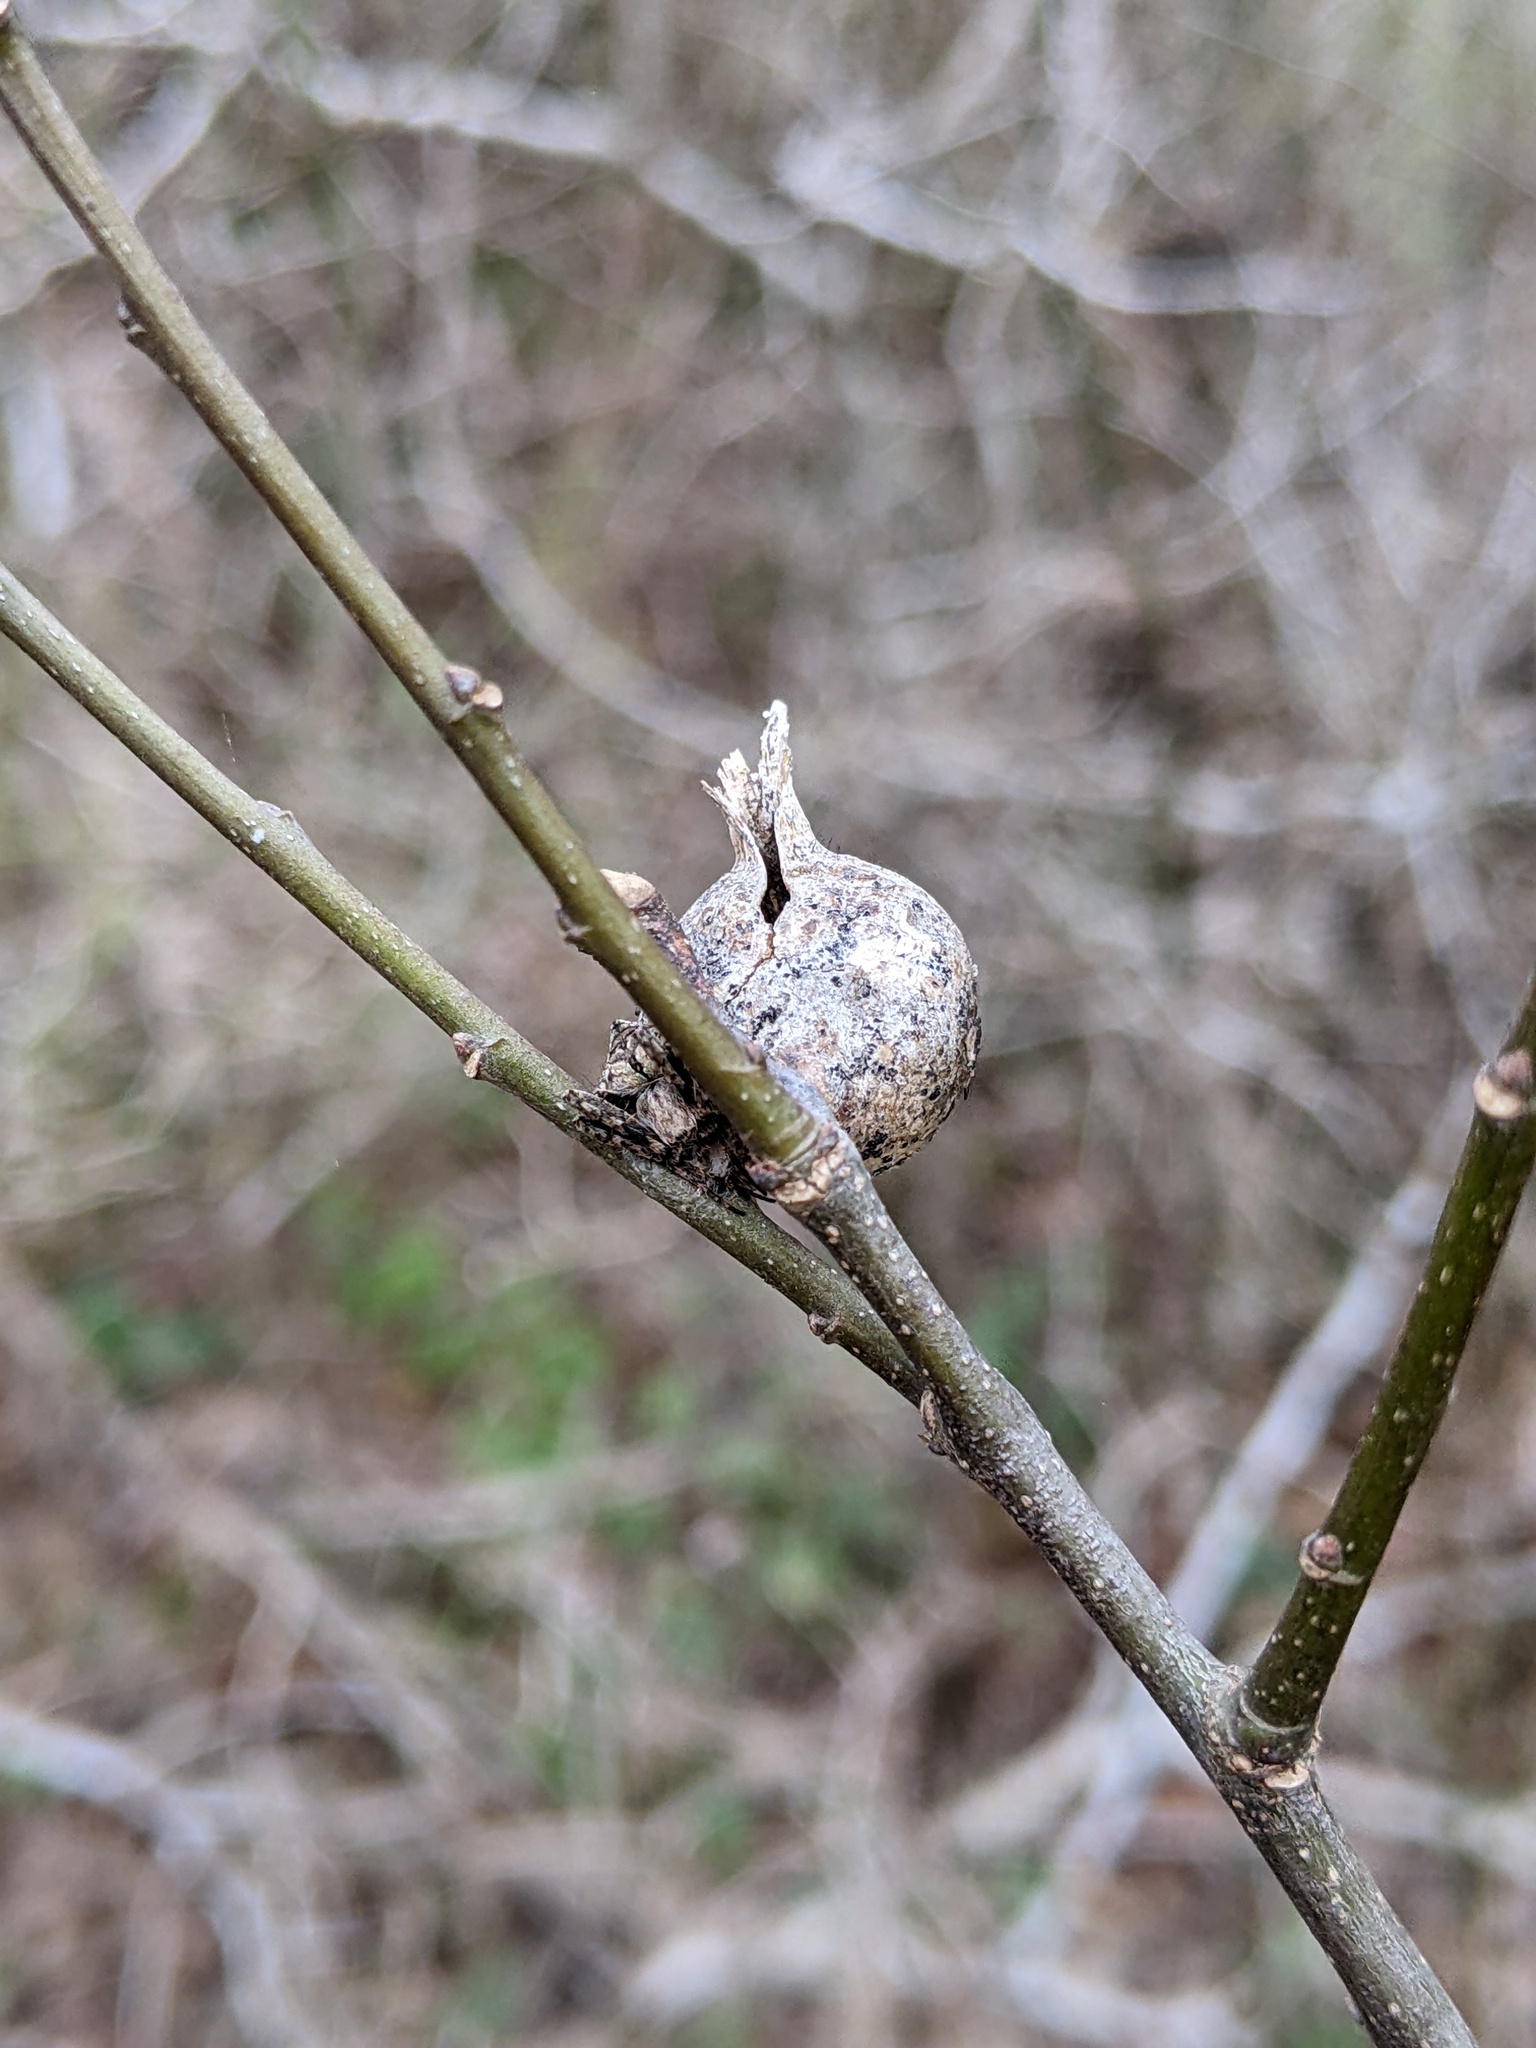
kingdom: Animalia
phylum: Arthropoda
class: Insecta
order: Hemiptera
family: Aphalaridae
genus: Pachypsylla
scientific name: Pachypsylla venusta
